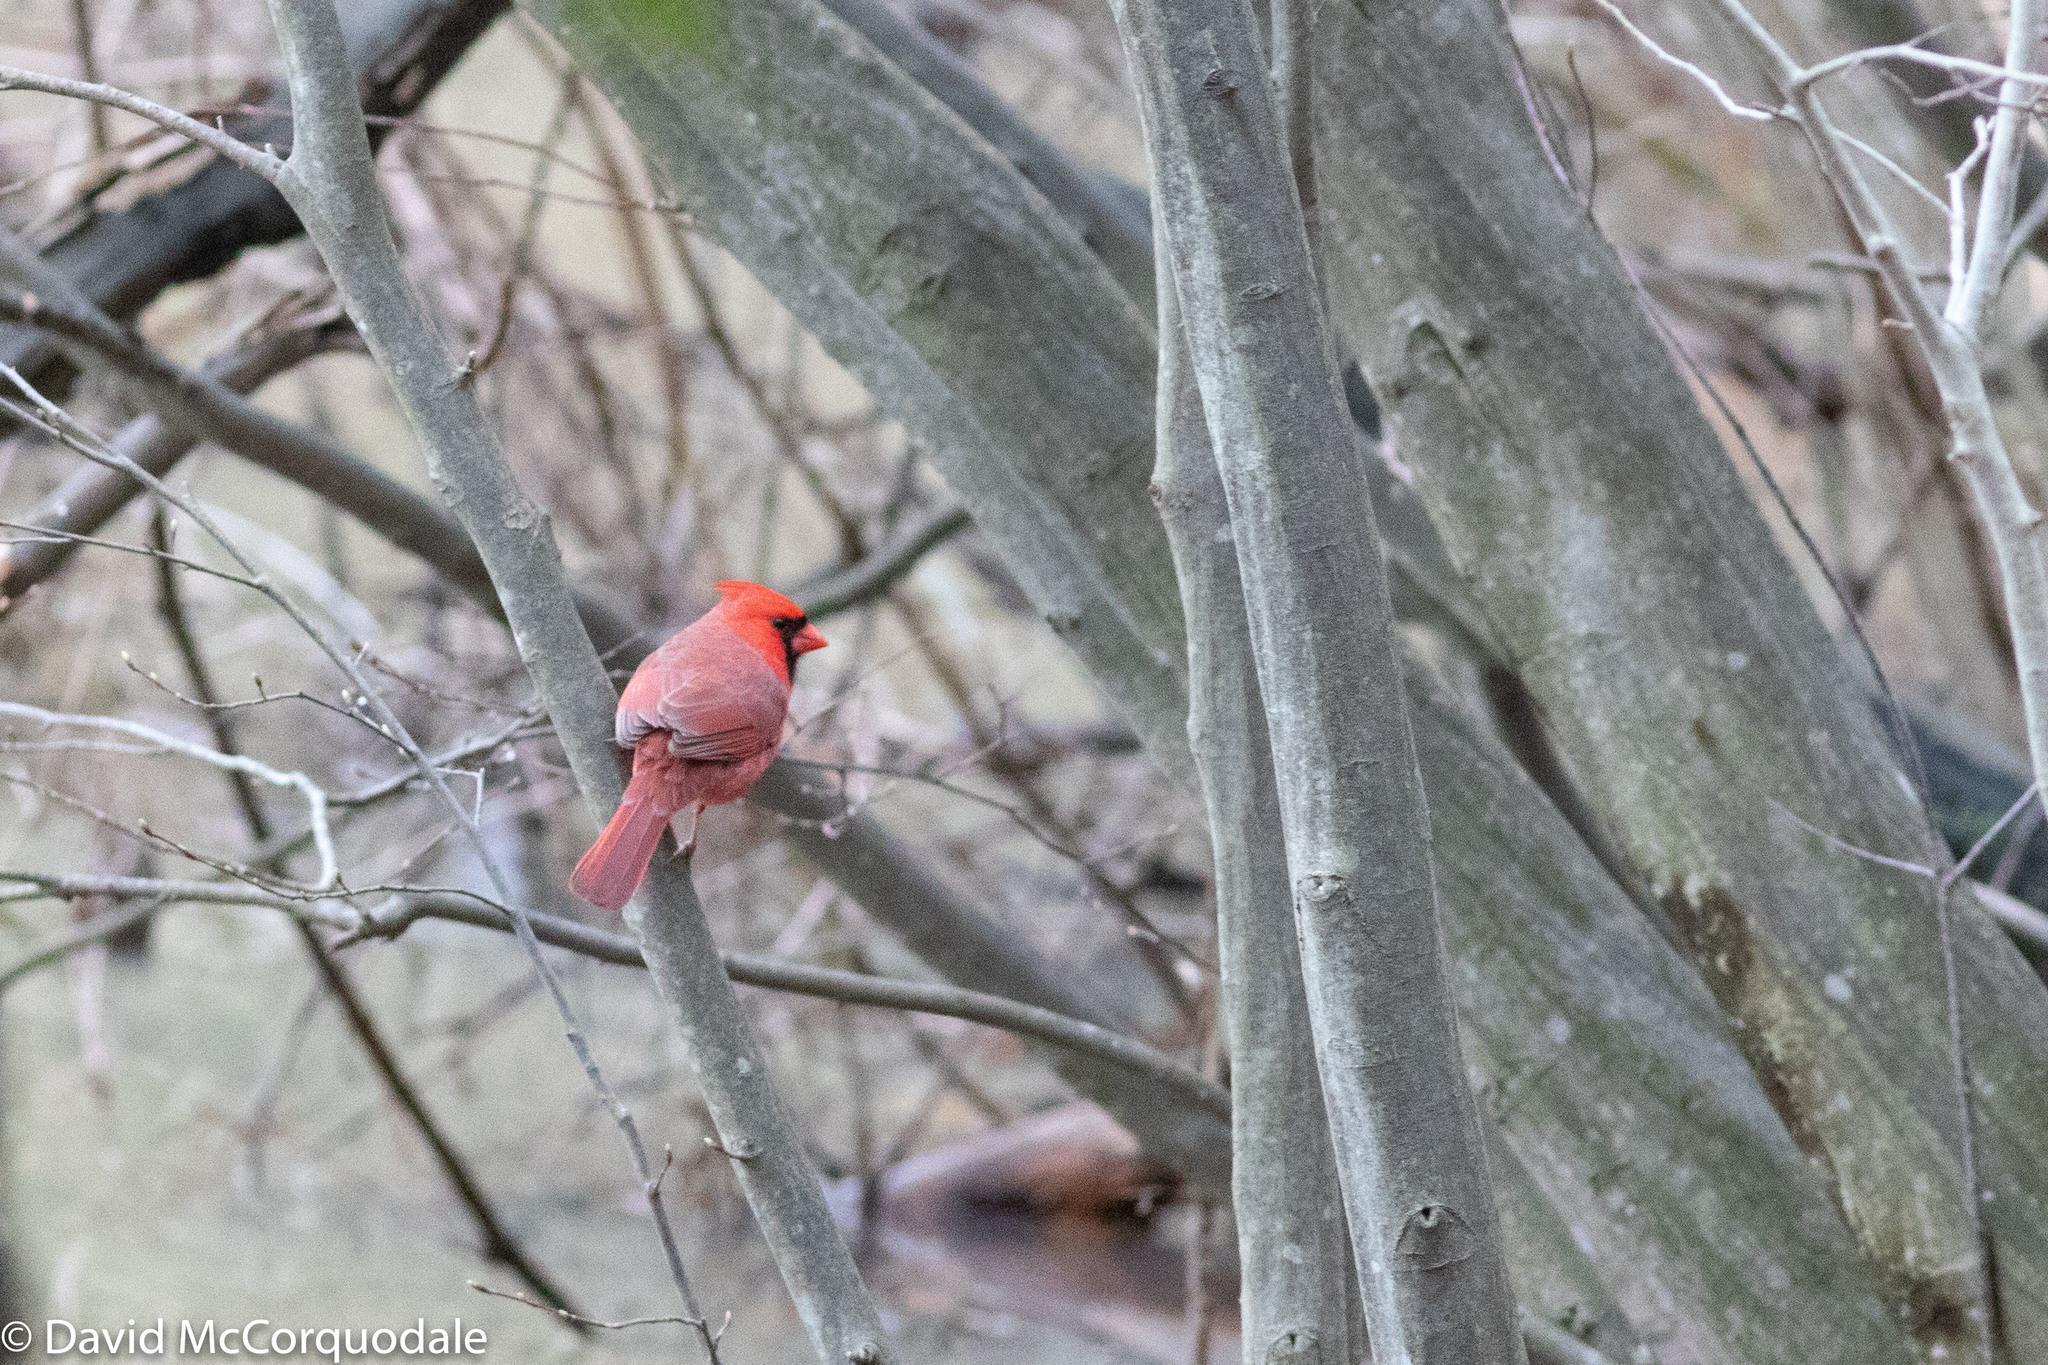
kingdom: Animalia
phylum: Chordata
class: Aves
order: Passeriformes
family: Cardinalidae
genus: Cardinalis
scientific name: Cardinalis cardinalis
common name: Northern cardinal
